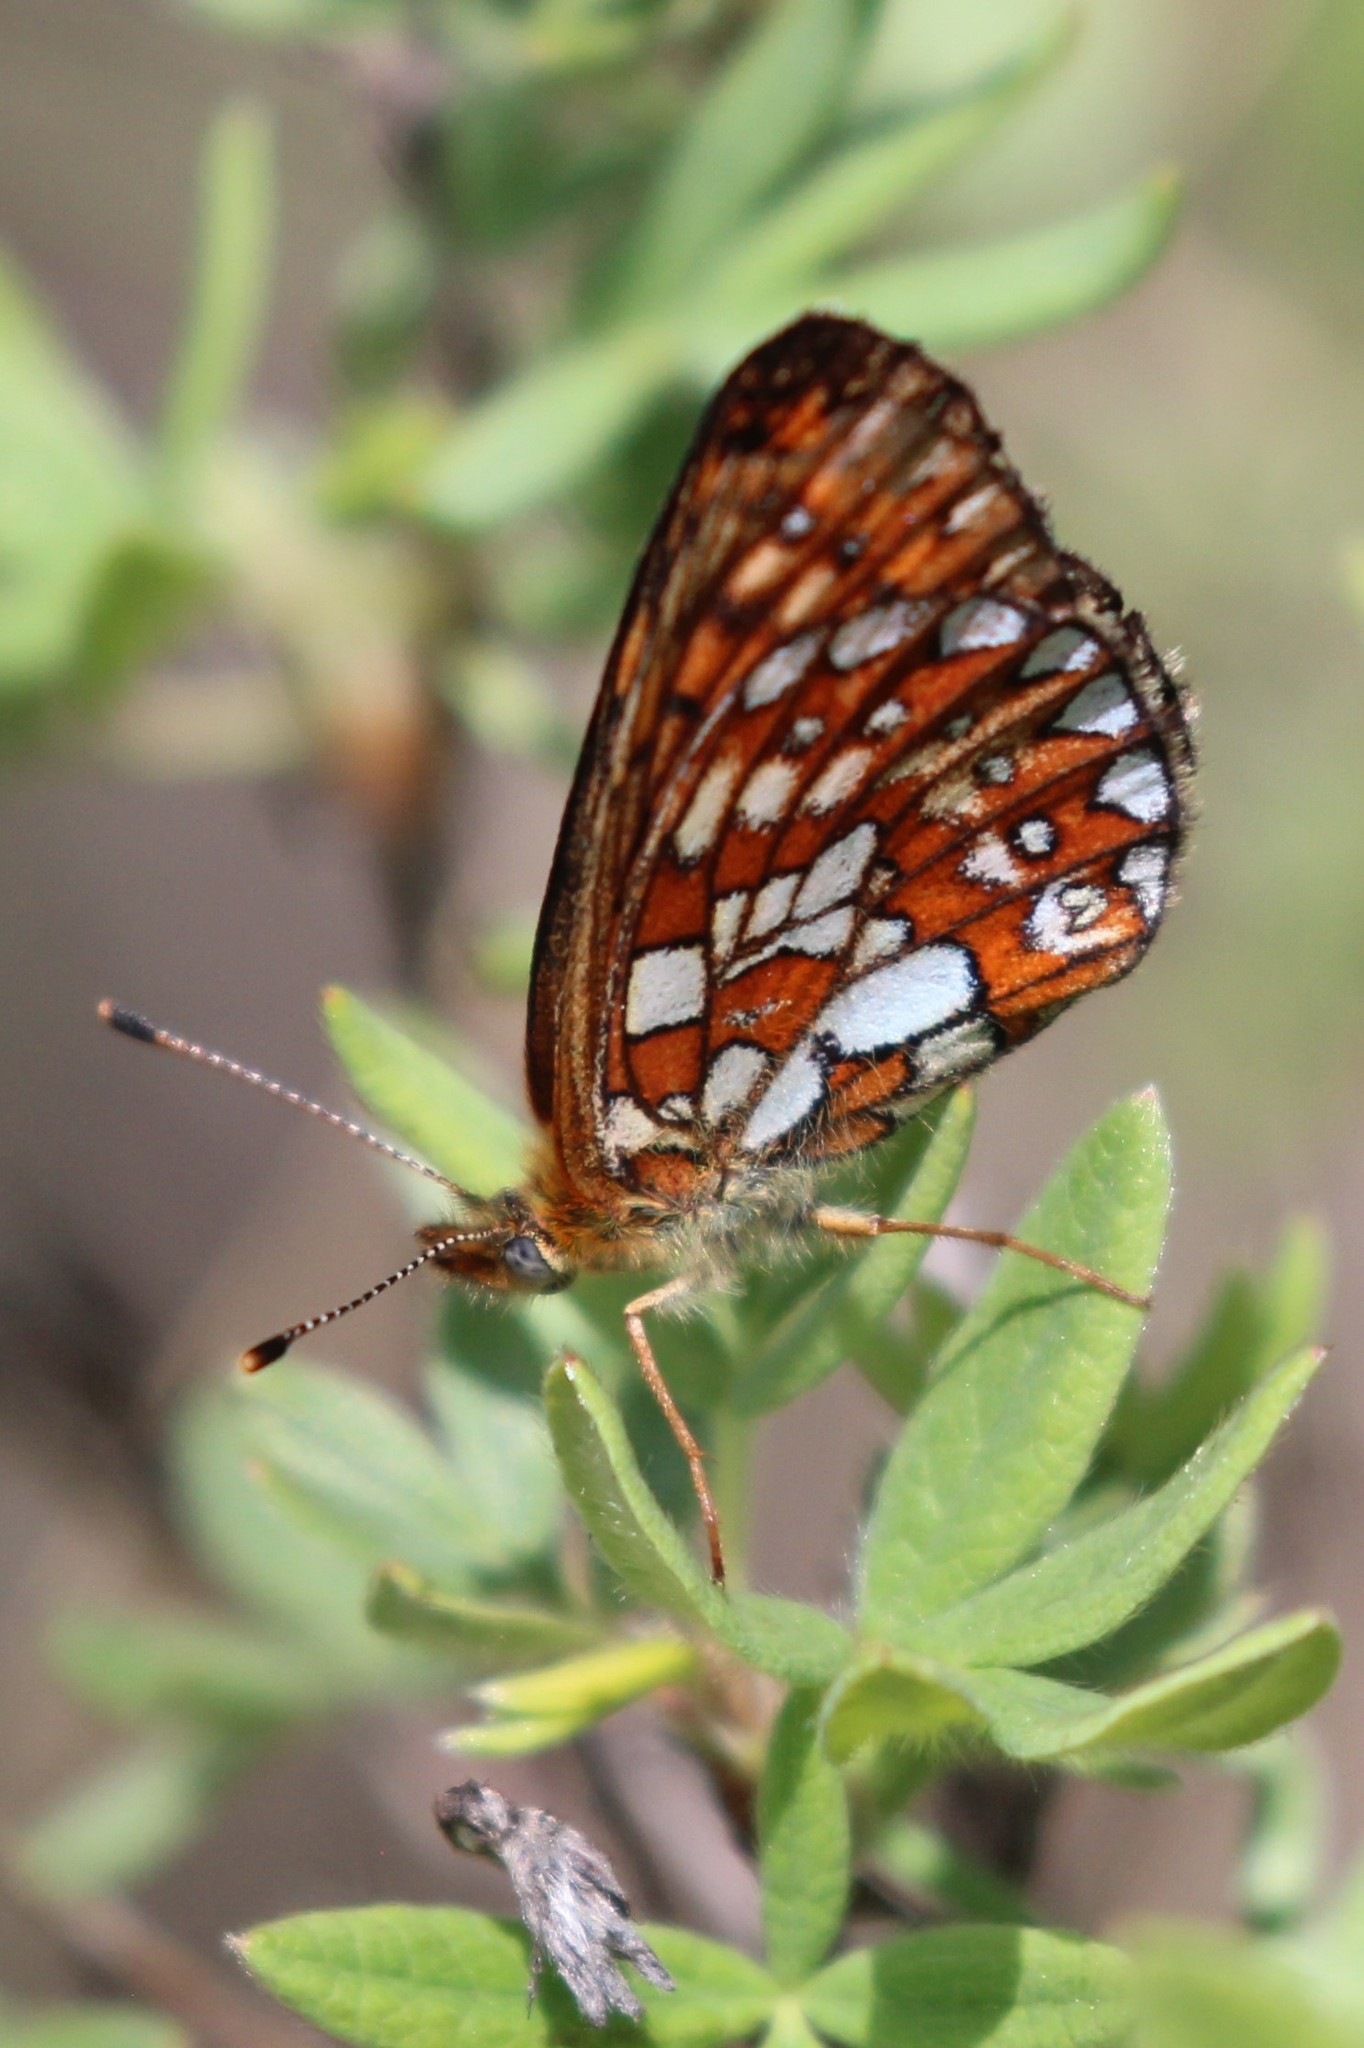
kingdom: Animalia
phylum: Arthropoda
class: Insecta
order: Lepidoptera
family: Nymphalidae
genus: Boloria
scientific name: Boloria eunomia
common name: Bog fritillary
